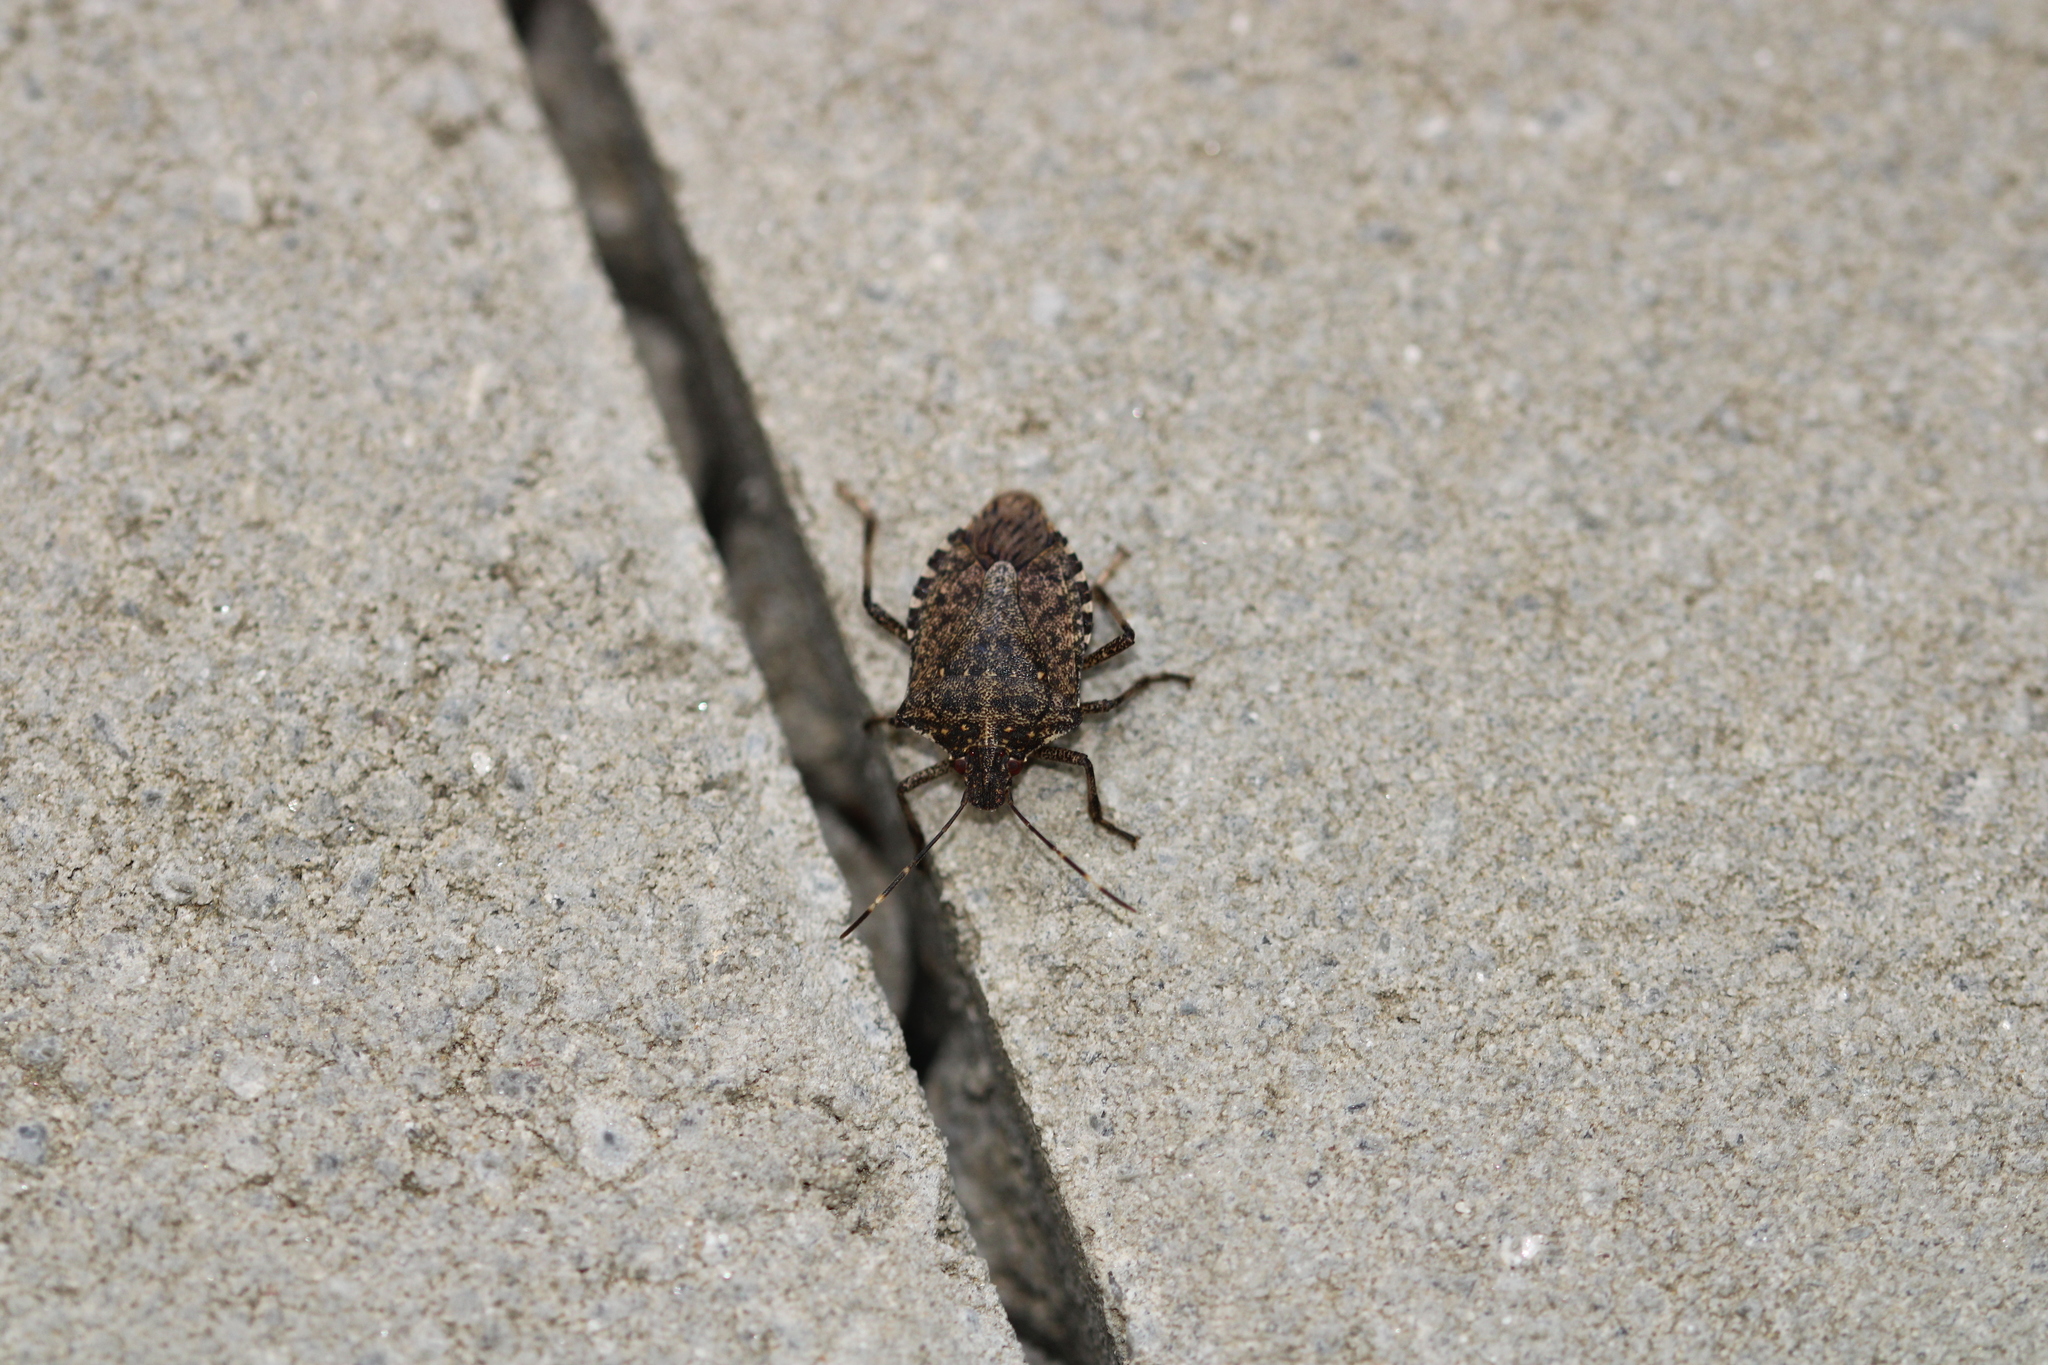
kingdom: Animalia
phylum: Arthropoda
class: Insecta
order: Hemiptera
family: Pentatomidae
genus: Halyomorpha
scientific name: Halyomorpha halys
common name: Brown marmorated stink bug
